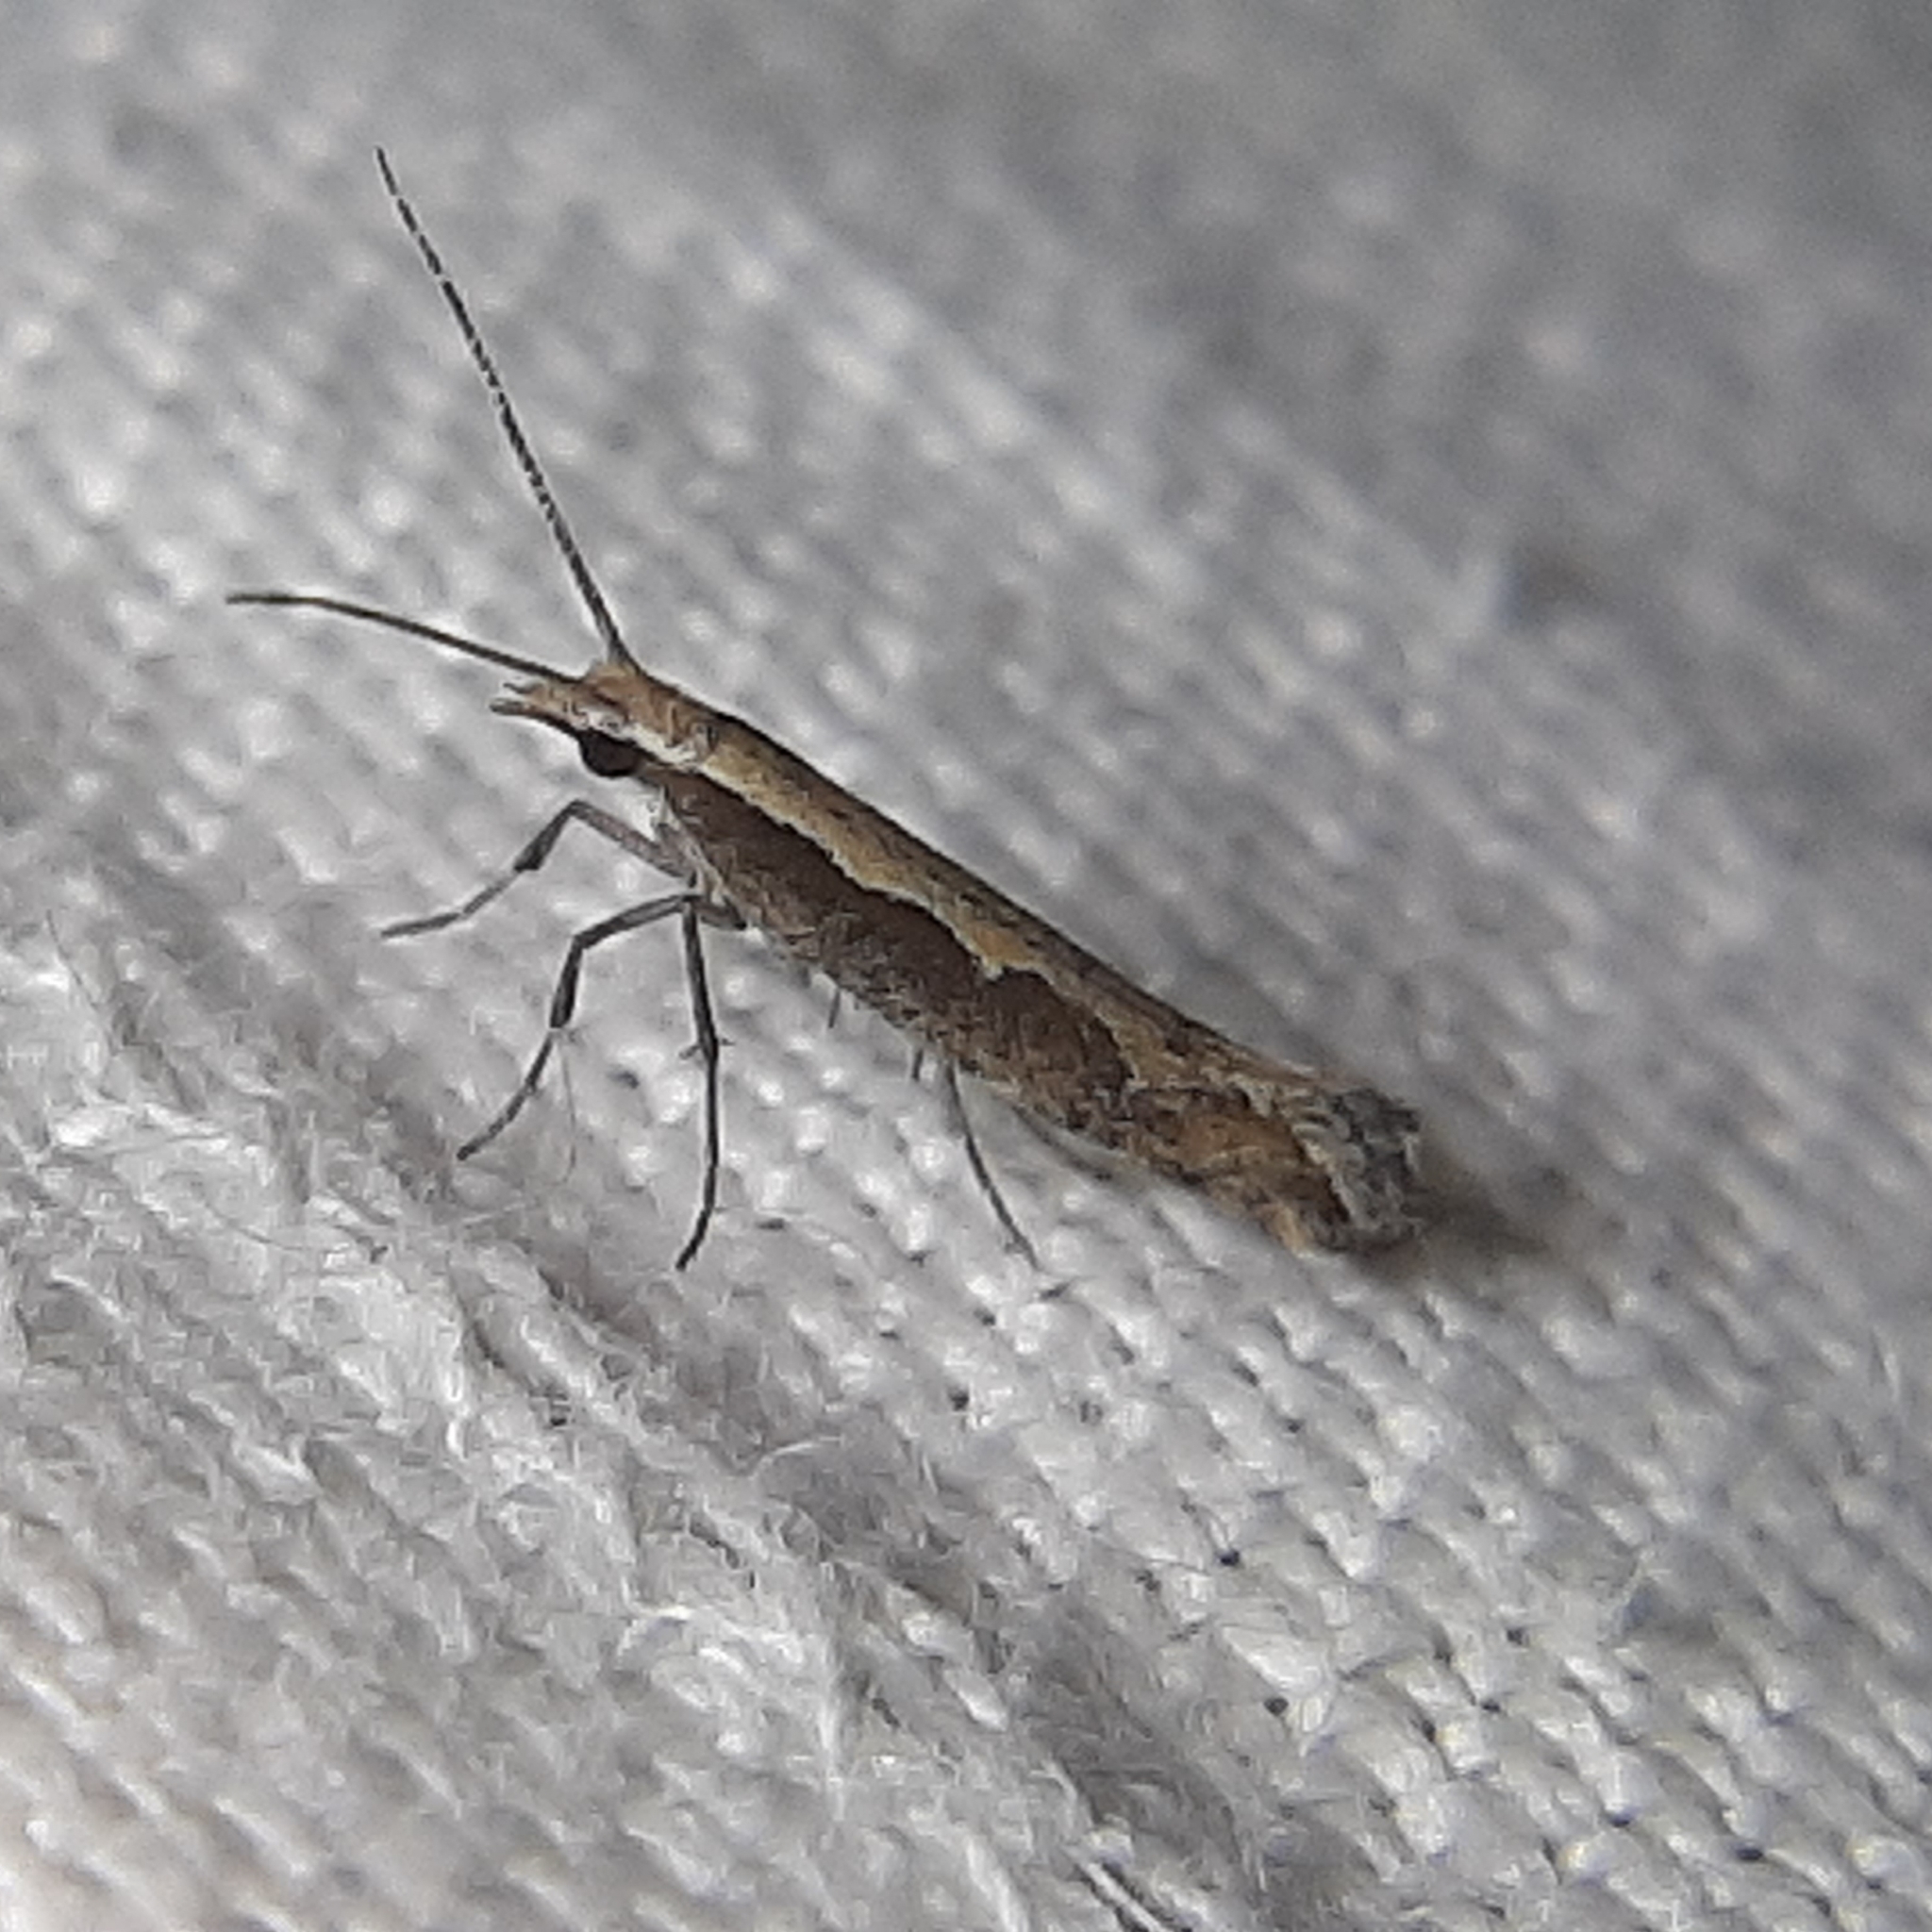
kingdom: Animalia
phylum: Arthropoda
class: Insecta
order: Lepidoptera
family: Plutellidae
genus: Plutella
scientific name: Plutella xylostella
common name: Diamond-back moth
